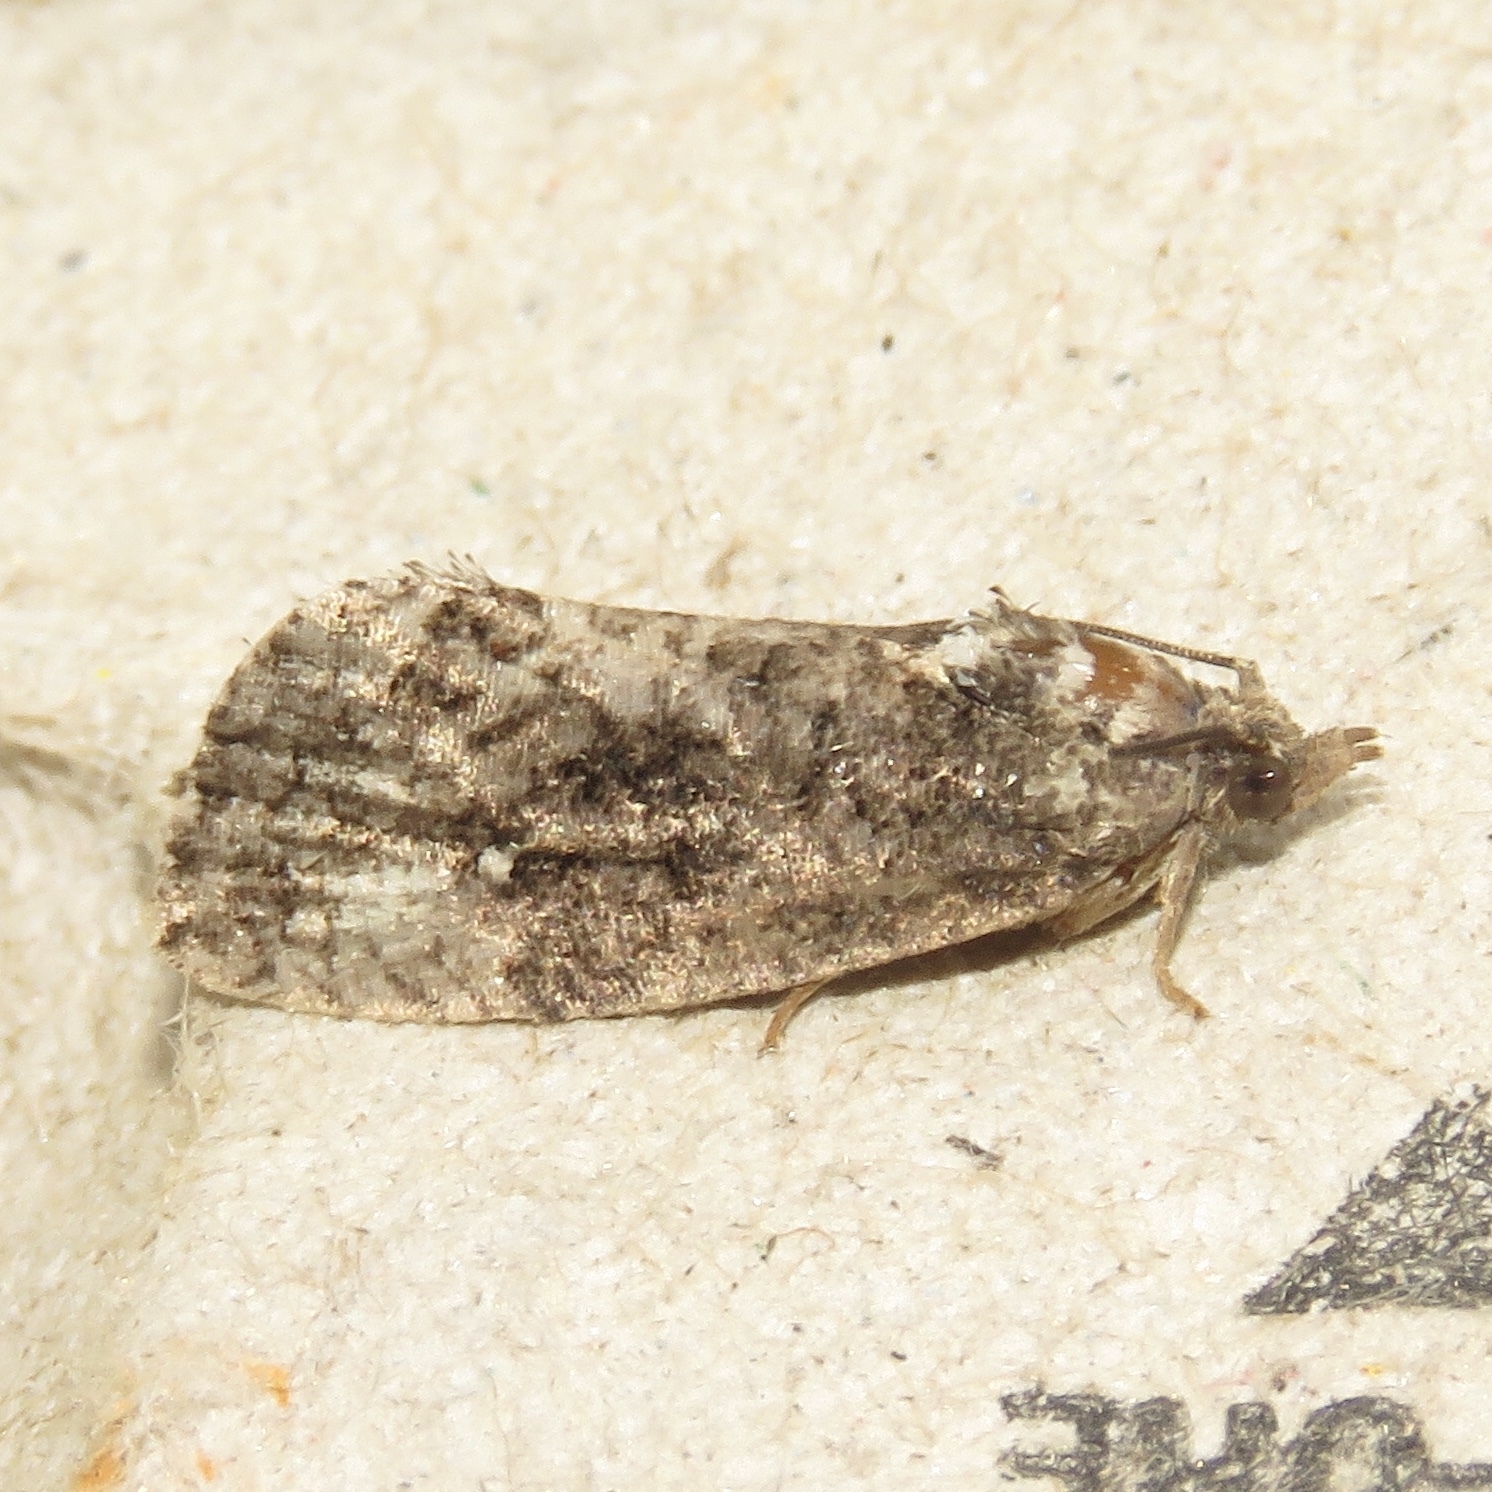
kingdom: Animalia
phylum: Arthropoda
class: Insecta
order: Lepidoptera
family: Tortricidae
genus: Gymnandrosoma
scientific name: Gymnandrosoma punctidiscanum
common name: Dotted ecdytolopha moth
